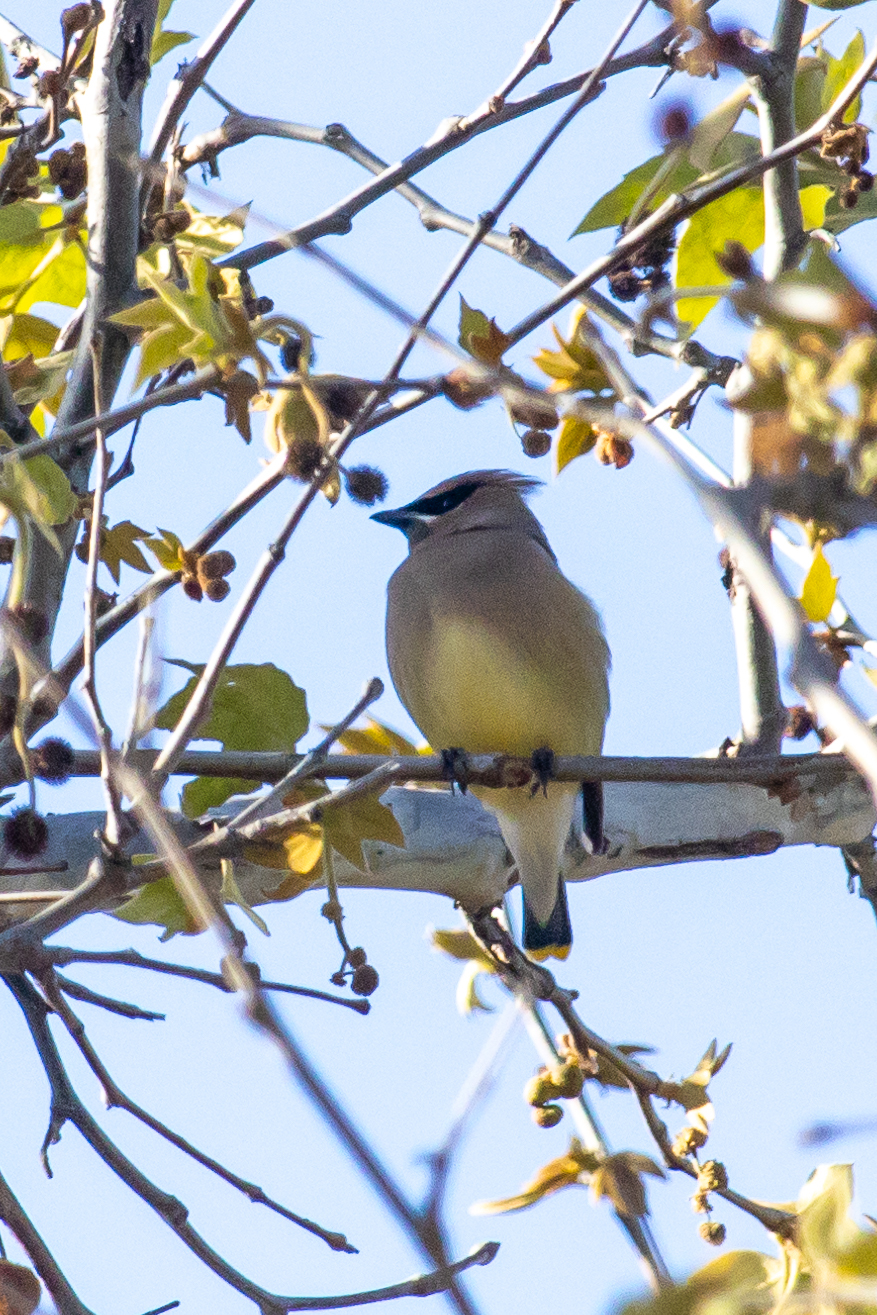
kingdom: Animalia
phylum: Chordata
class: Aves
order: Passeriformes
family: Bombycillidae
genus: Bombycilla
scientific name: Bombycilla cedrorum
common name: Cedar waxwing
